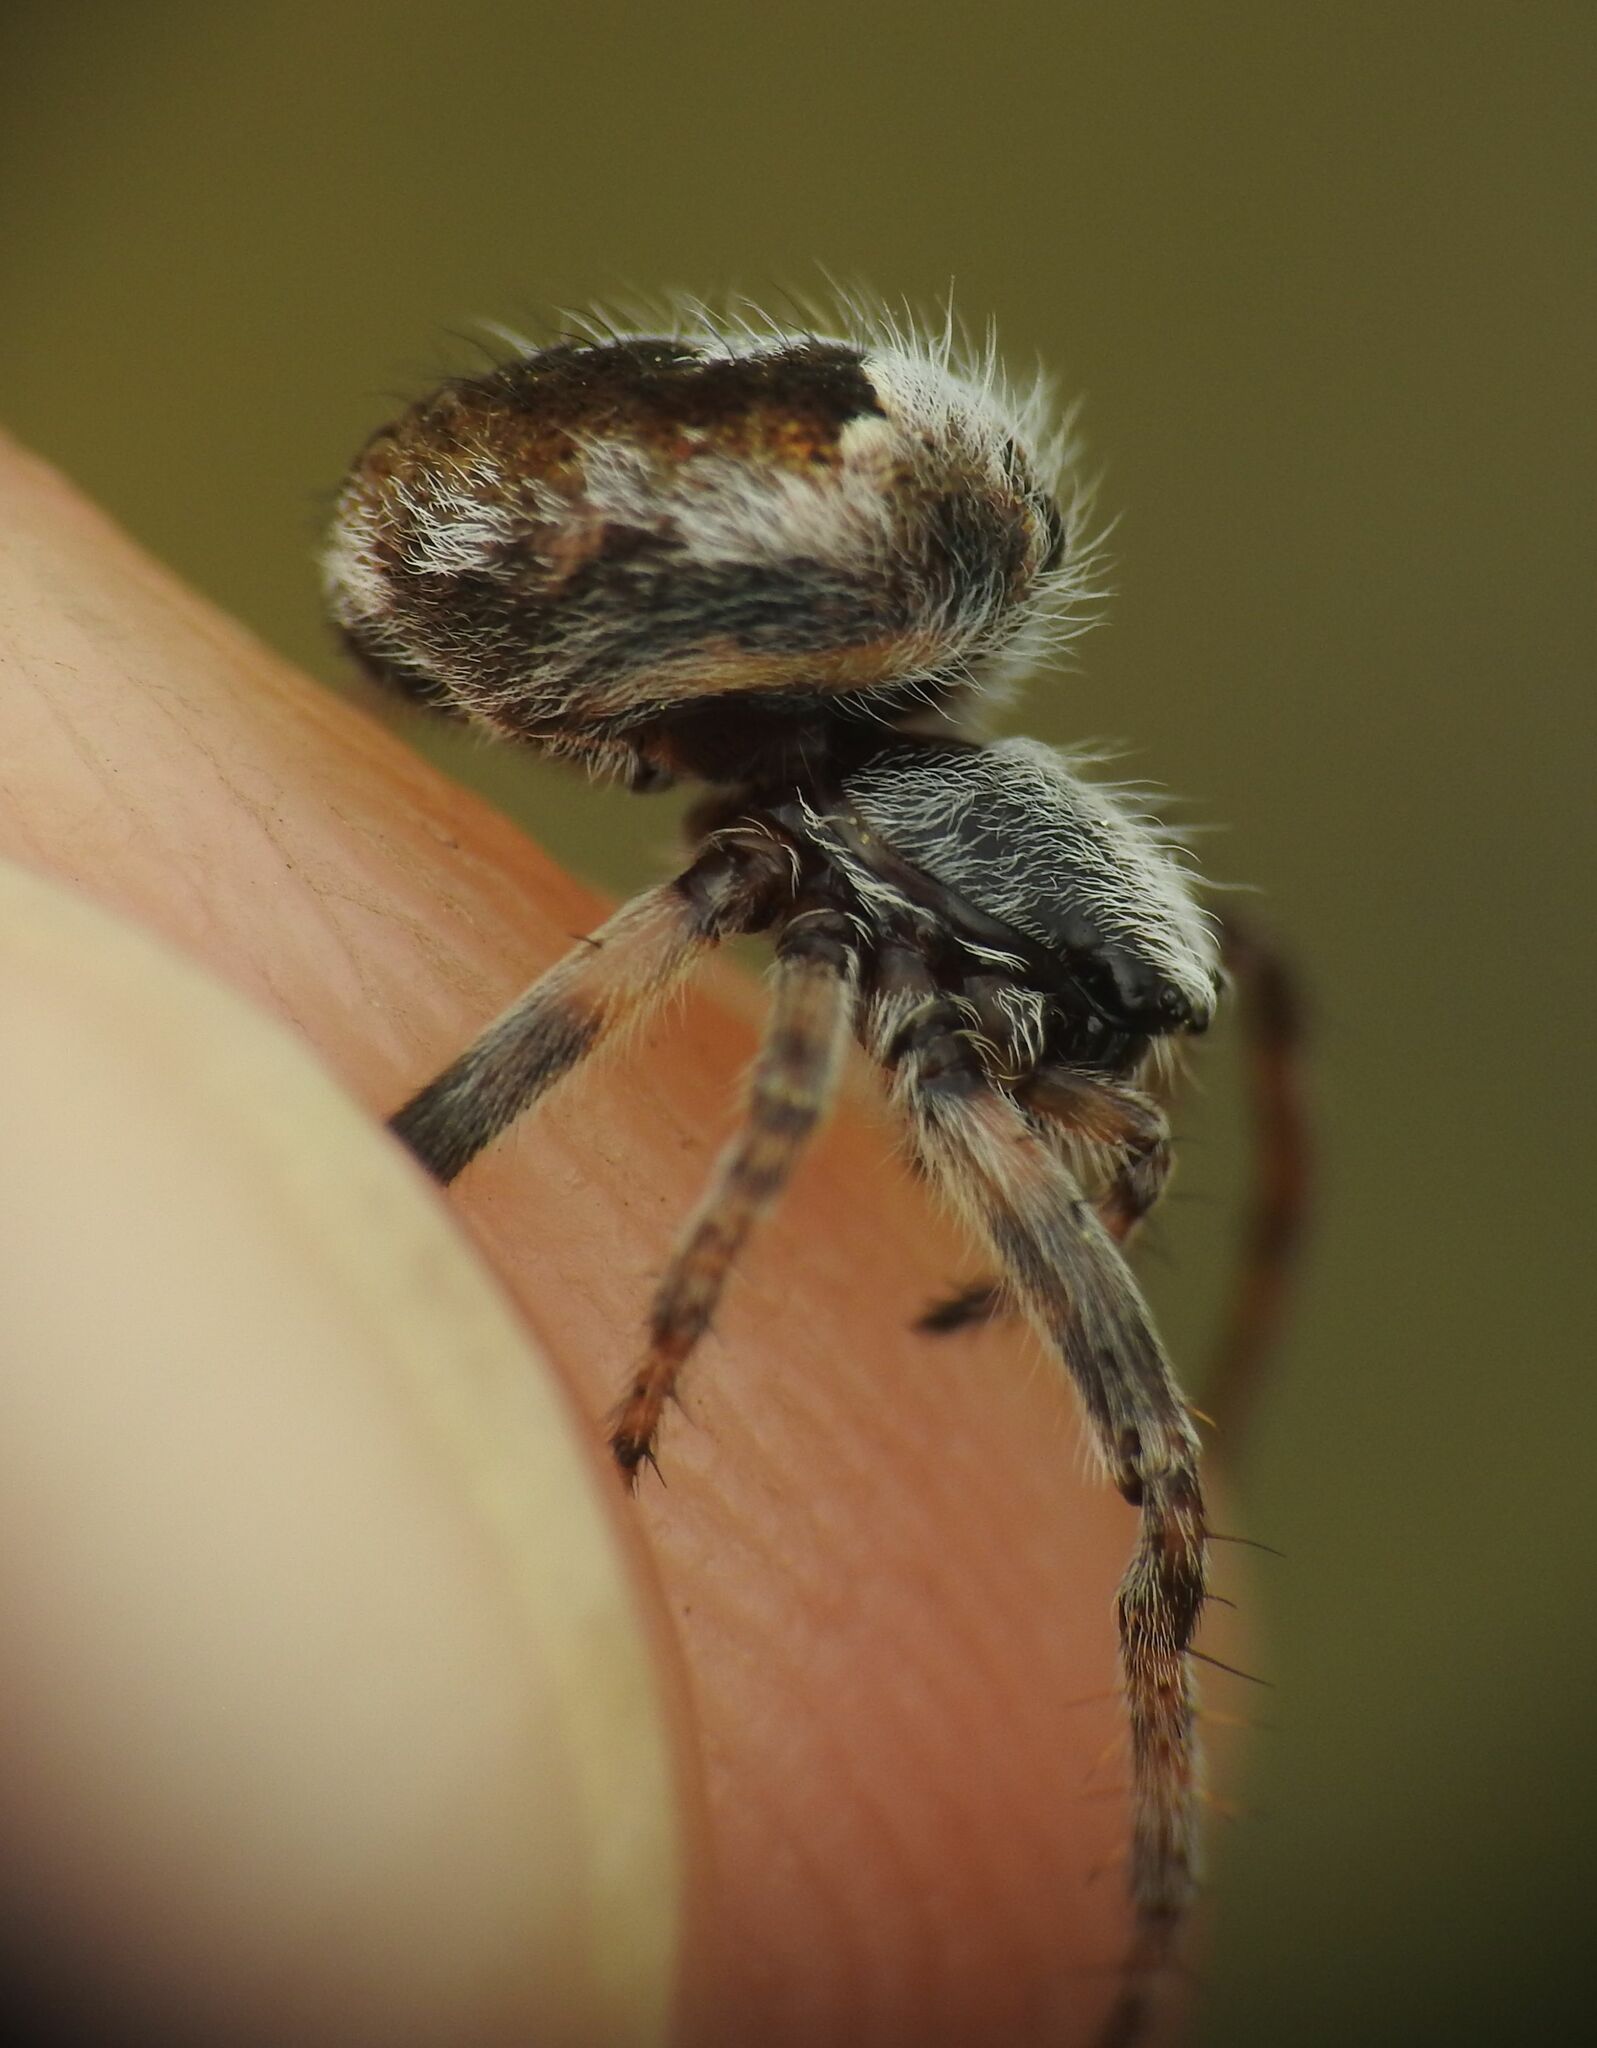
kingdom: Animalia
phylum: Arthropoda
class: Arachnida
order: Araneae
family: Araneidae
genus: Agalenatea
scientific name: Agalenatea redii
